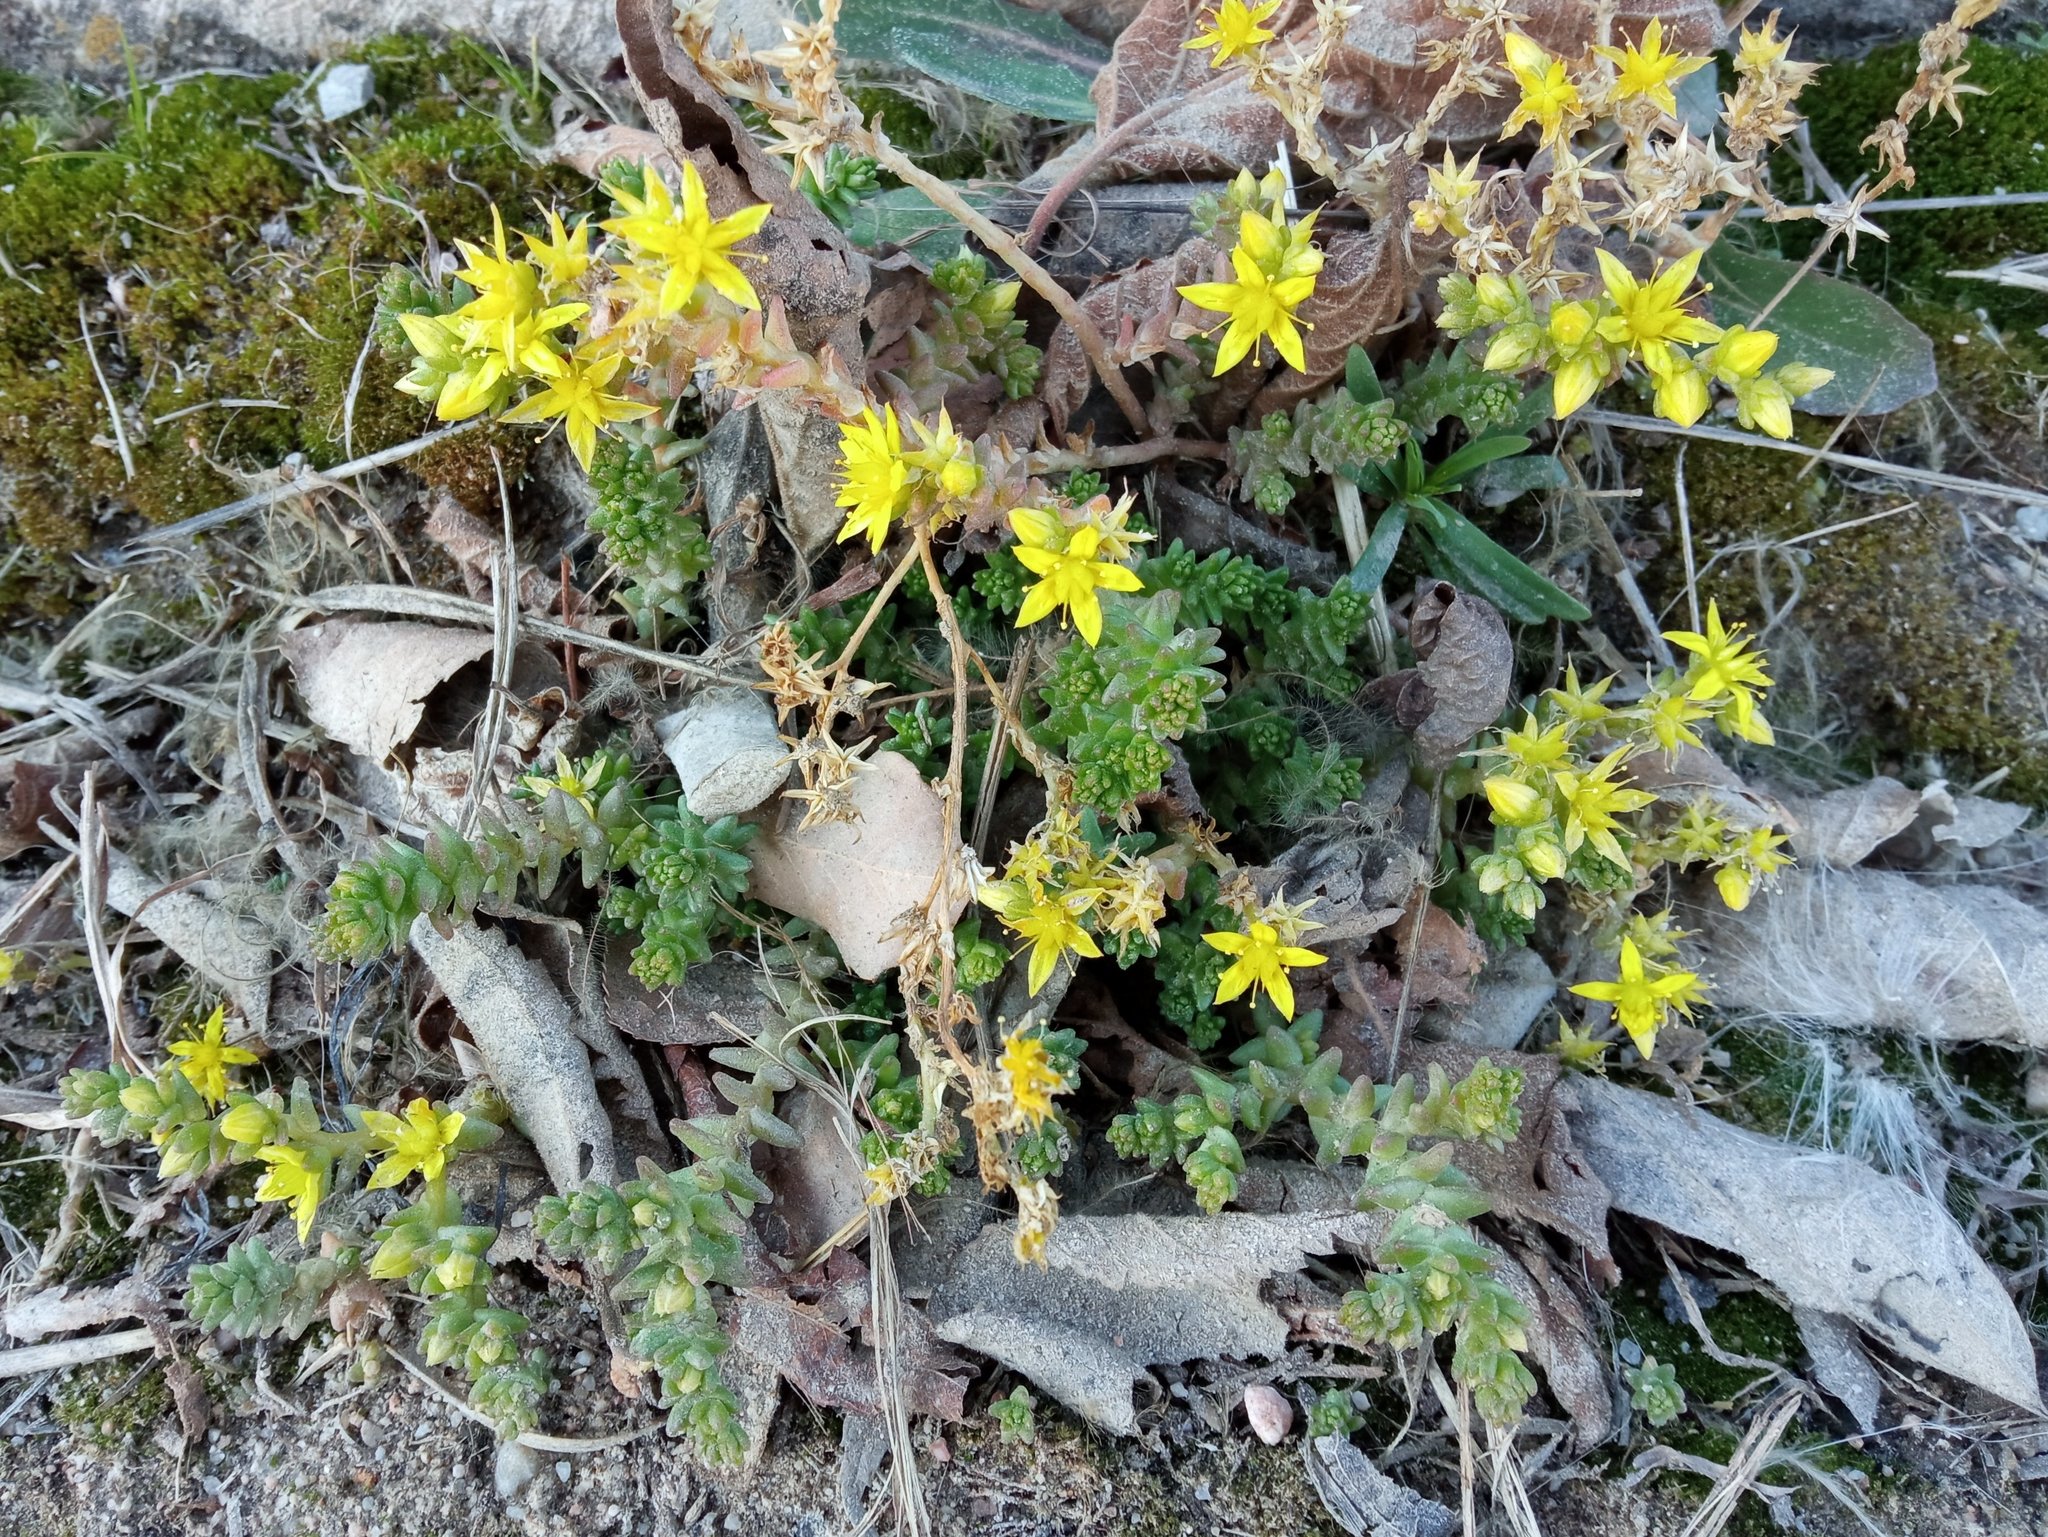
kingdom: Plantae
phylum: Tracheophyta
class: Magnoliopsida
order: Saxifragales
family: Crassulaceae
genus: Sedum
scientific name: Sedum acre
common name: Biting stonecrop
